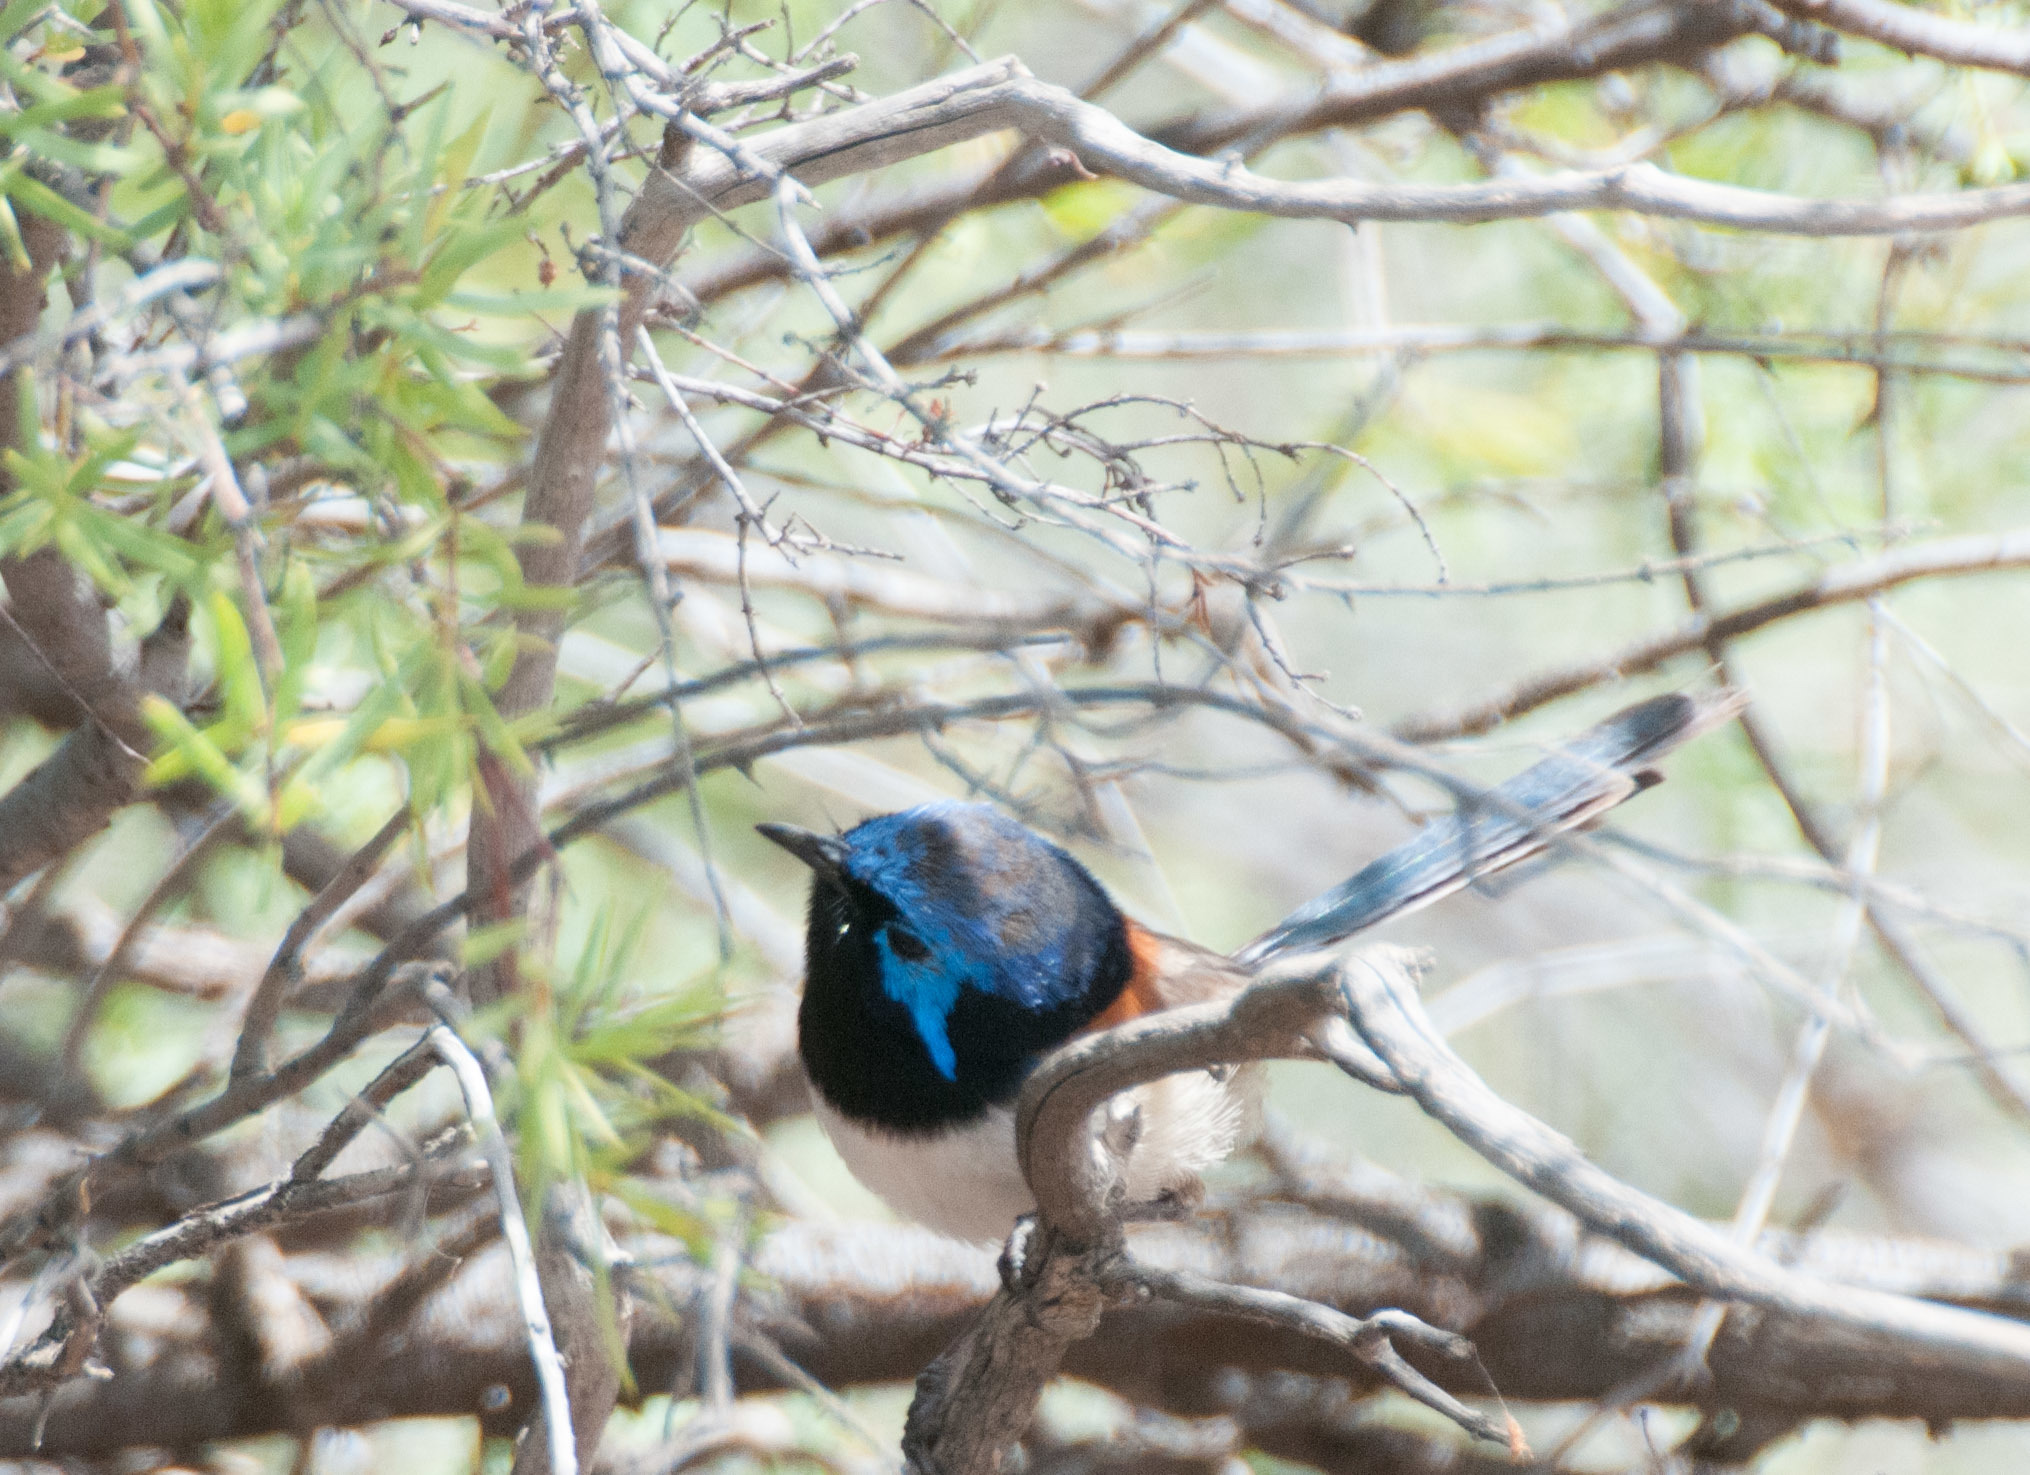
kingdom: Animalia
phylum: Chordata
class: Aves
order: Passeriformes
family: Maluridae
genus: Malurus
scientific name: Malurus assimilis
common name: Purple-backed fairywren
